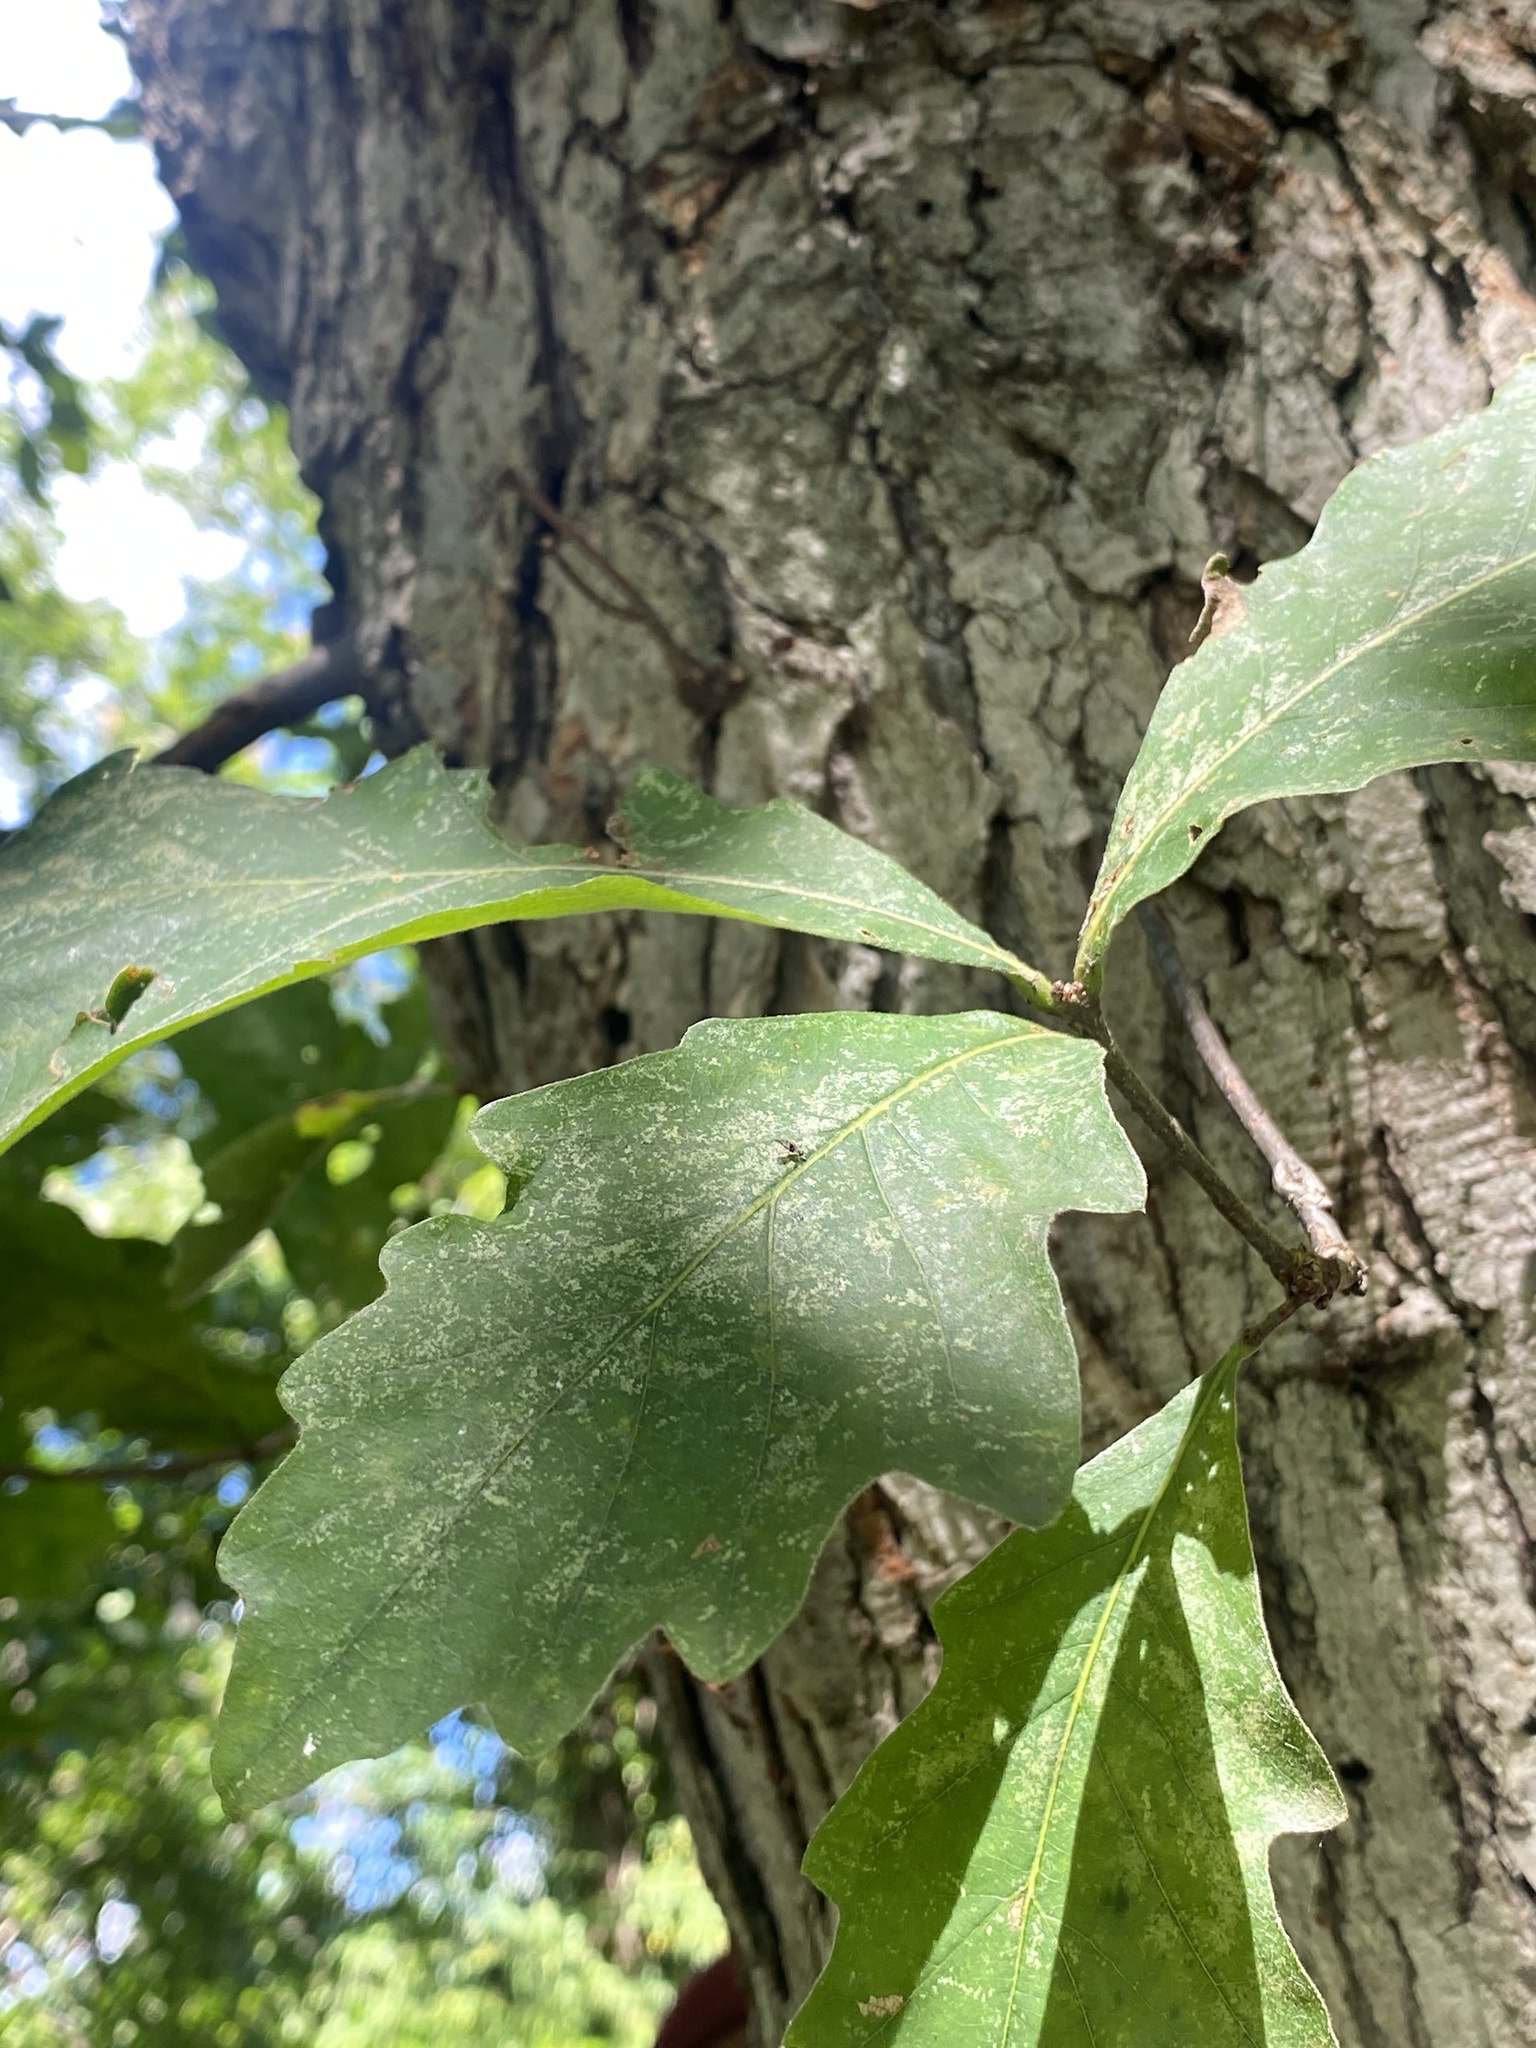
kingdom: Plantae
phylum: Tracheophyta
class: Magnoliopsida
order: Fagales
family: Fagaceae
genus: Quercus
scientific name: Quercus bicolor
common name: Swamp white oak
